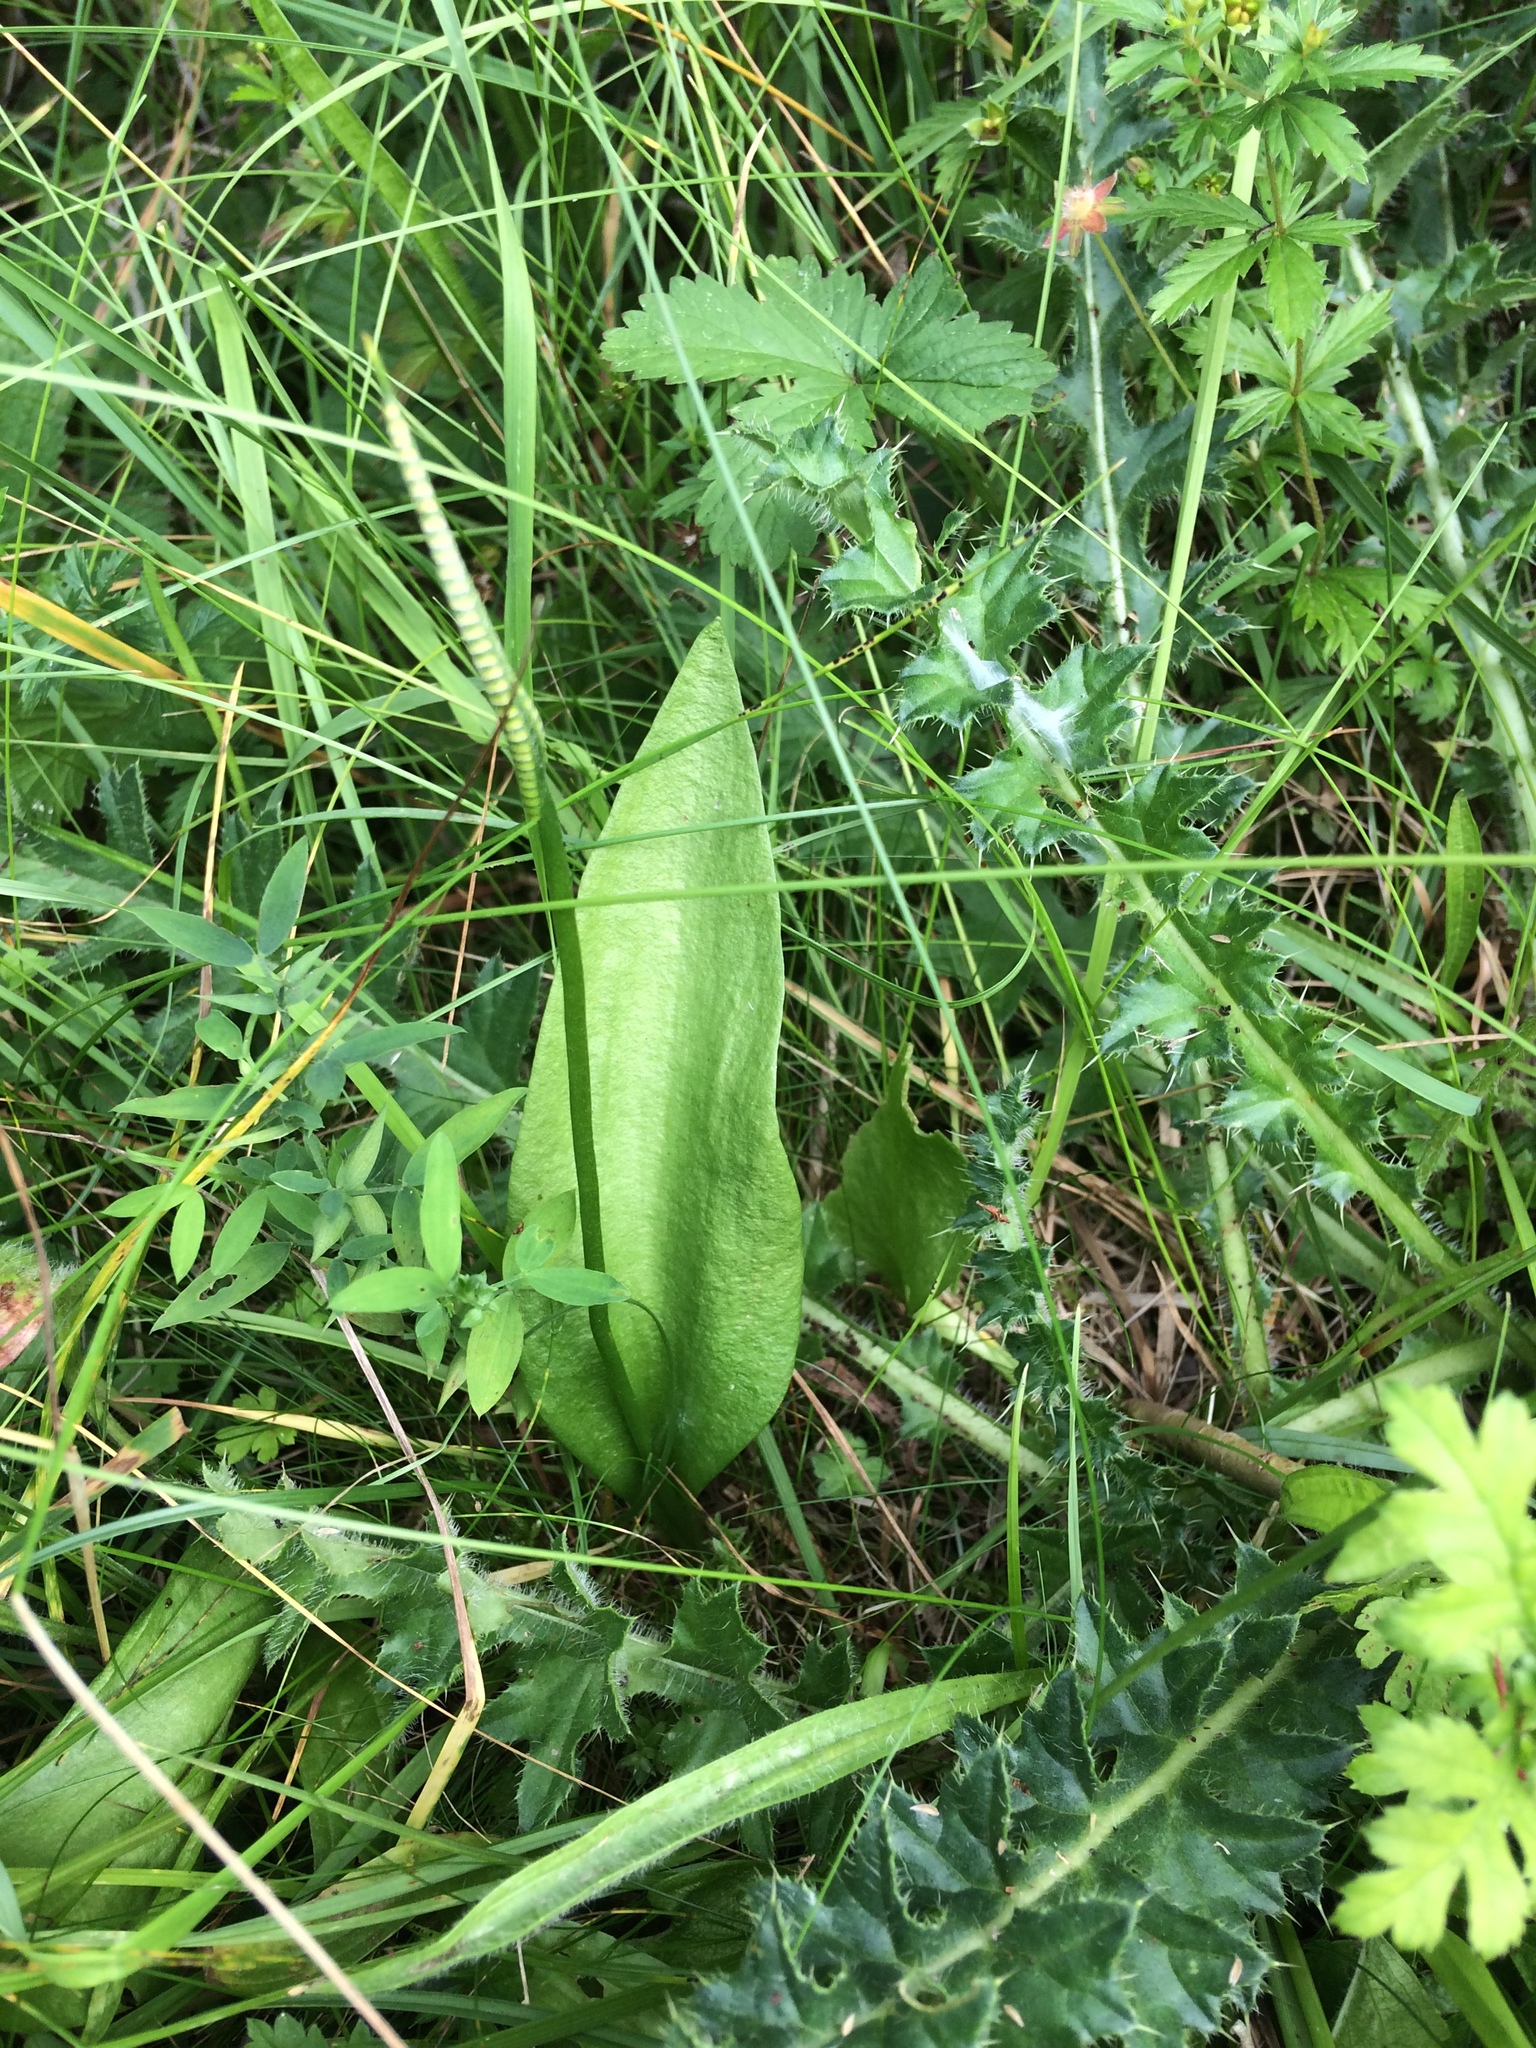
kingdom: Plantae
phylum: Tracheophyta
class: Polypodiopsida
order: Ophioglossales
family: Ophioglossaceae
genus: Ophioglossum
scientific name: Ophioglossum vulgatum
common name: Adder's-tongue
